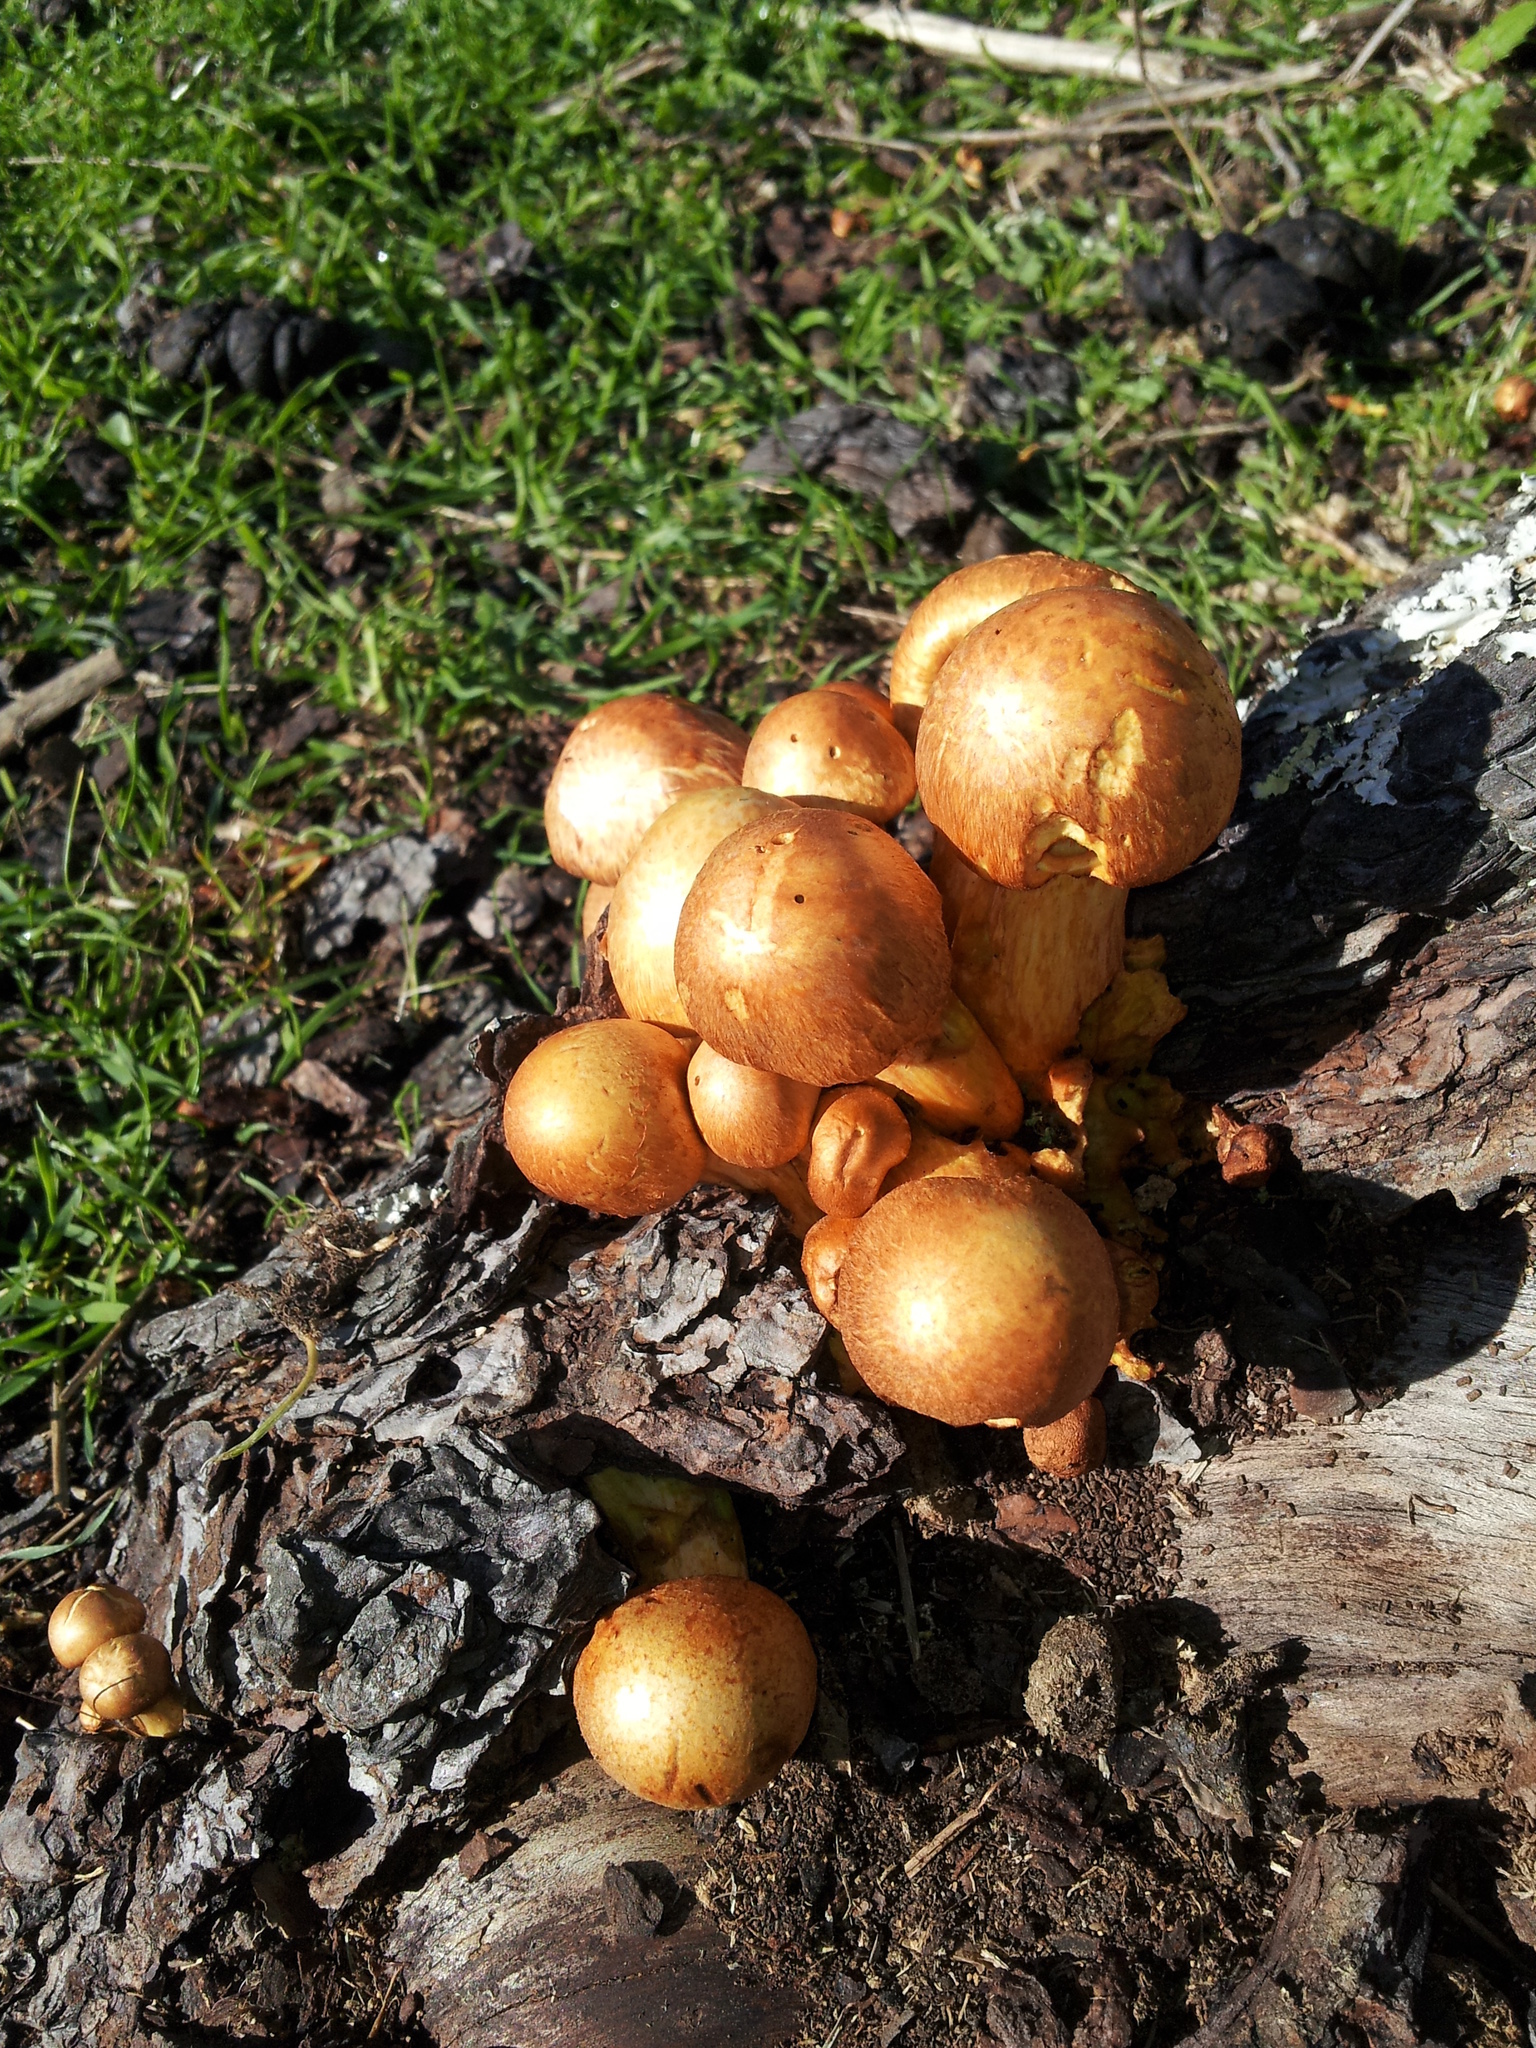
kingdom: Fungi
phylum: Basidiomycota
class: Agaricomycetes
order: Agaricales
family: Hymenogastraceae
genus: Gymnopilus
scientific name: Gymnopilus junonius
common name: Spectacular rustgill
